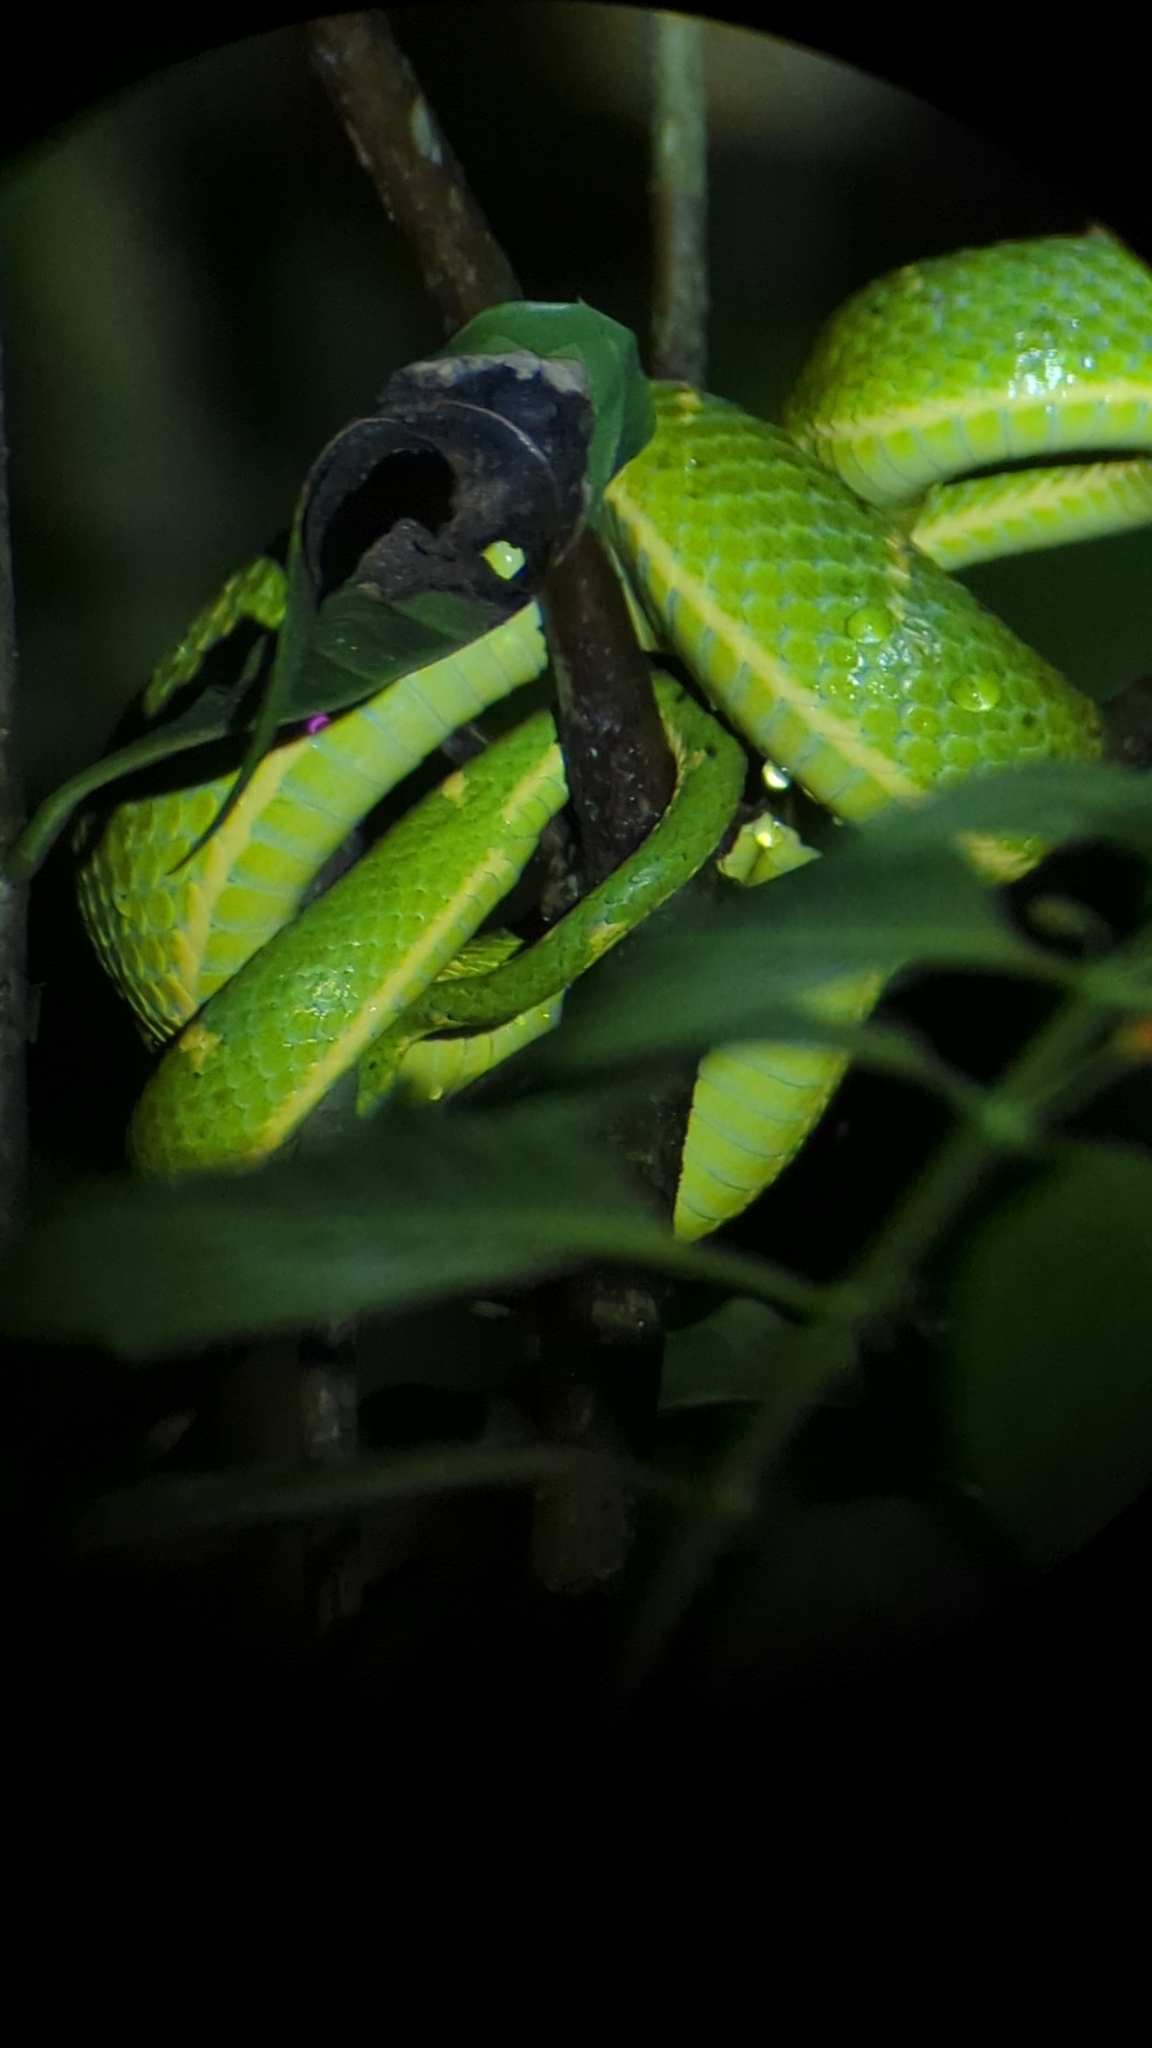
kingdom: Animalia
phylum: Chordata
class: Squamata
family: Viperidae
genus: Bothriechis
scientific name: Bothriechis lateralis
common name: Coffee palm viper
